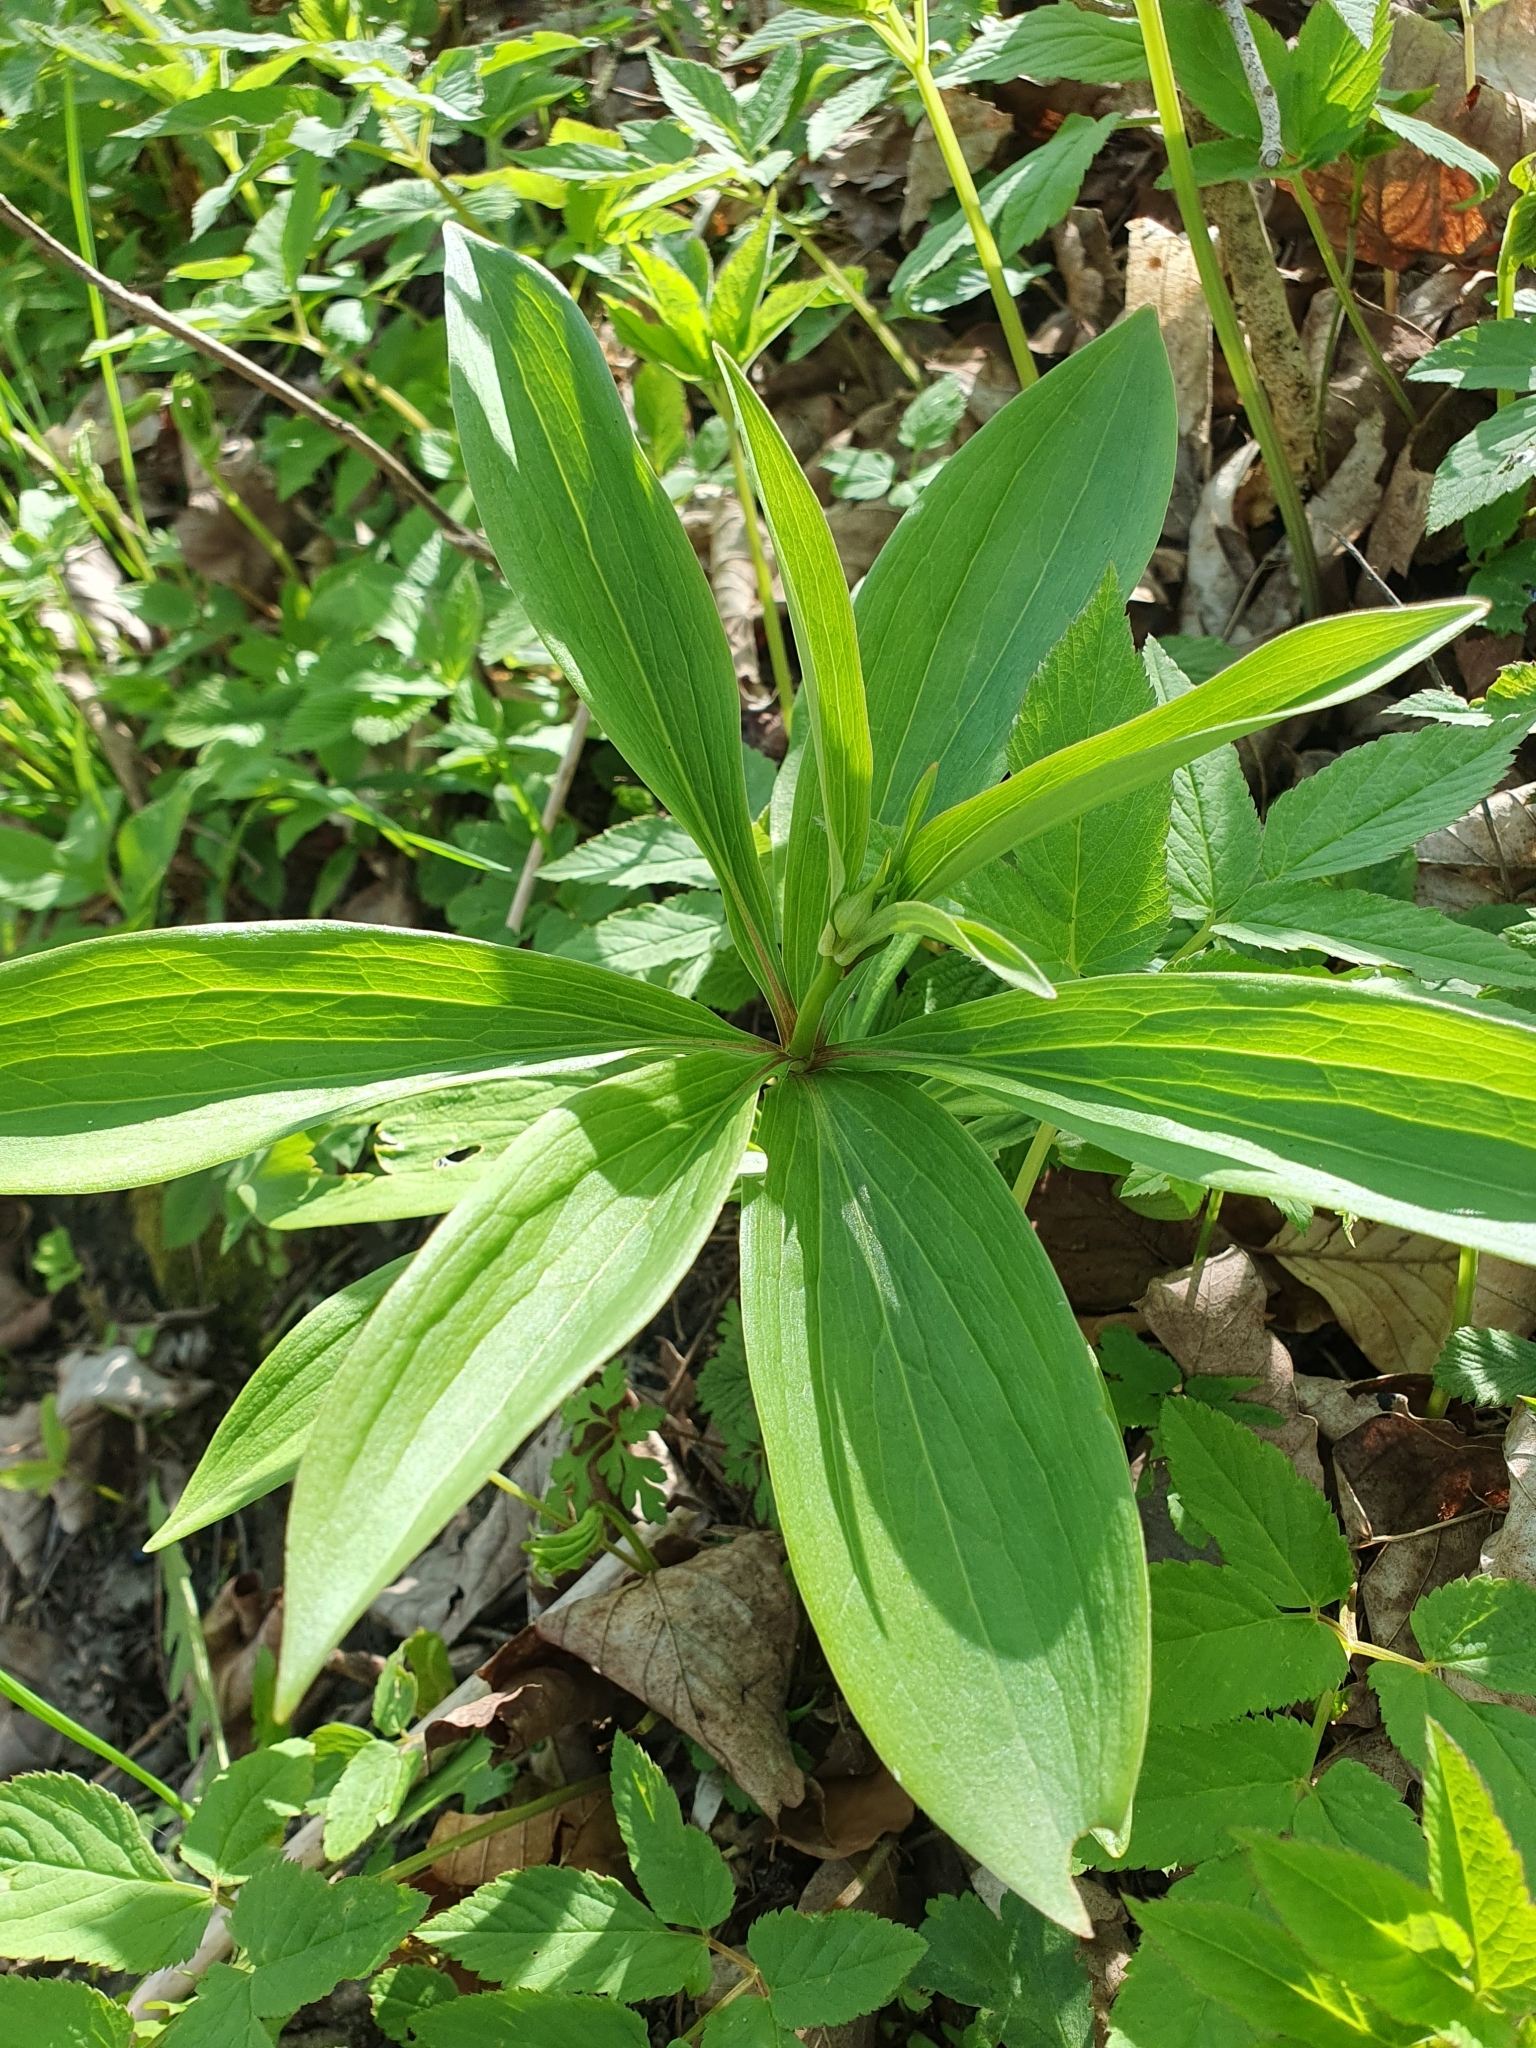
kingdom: Plantae
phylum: Tracheophyta
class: Liliopsida
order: Liliales
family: Liliaceae
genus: Lilium
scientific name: Lilium martagon
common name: Martagon lily
